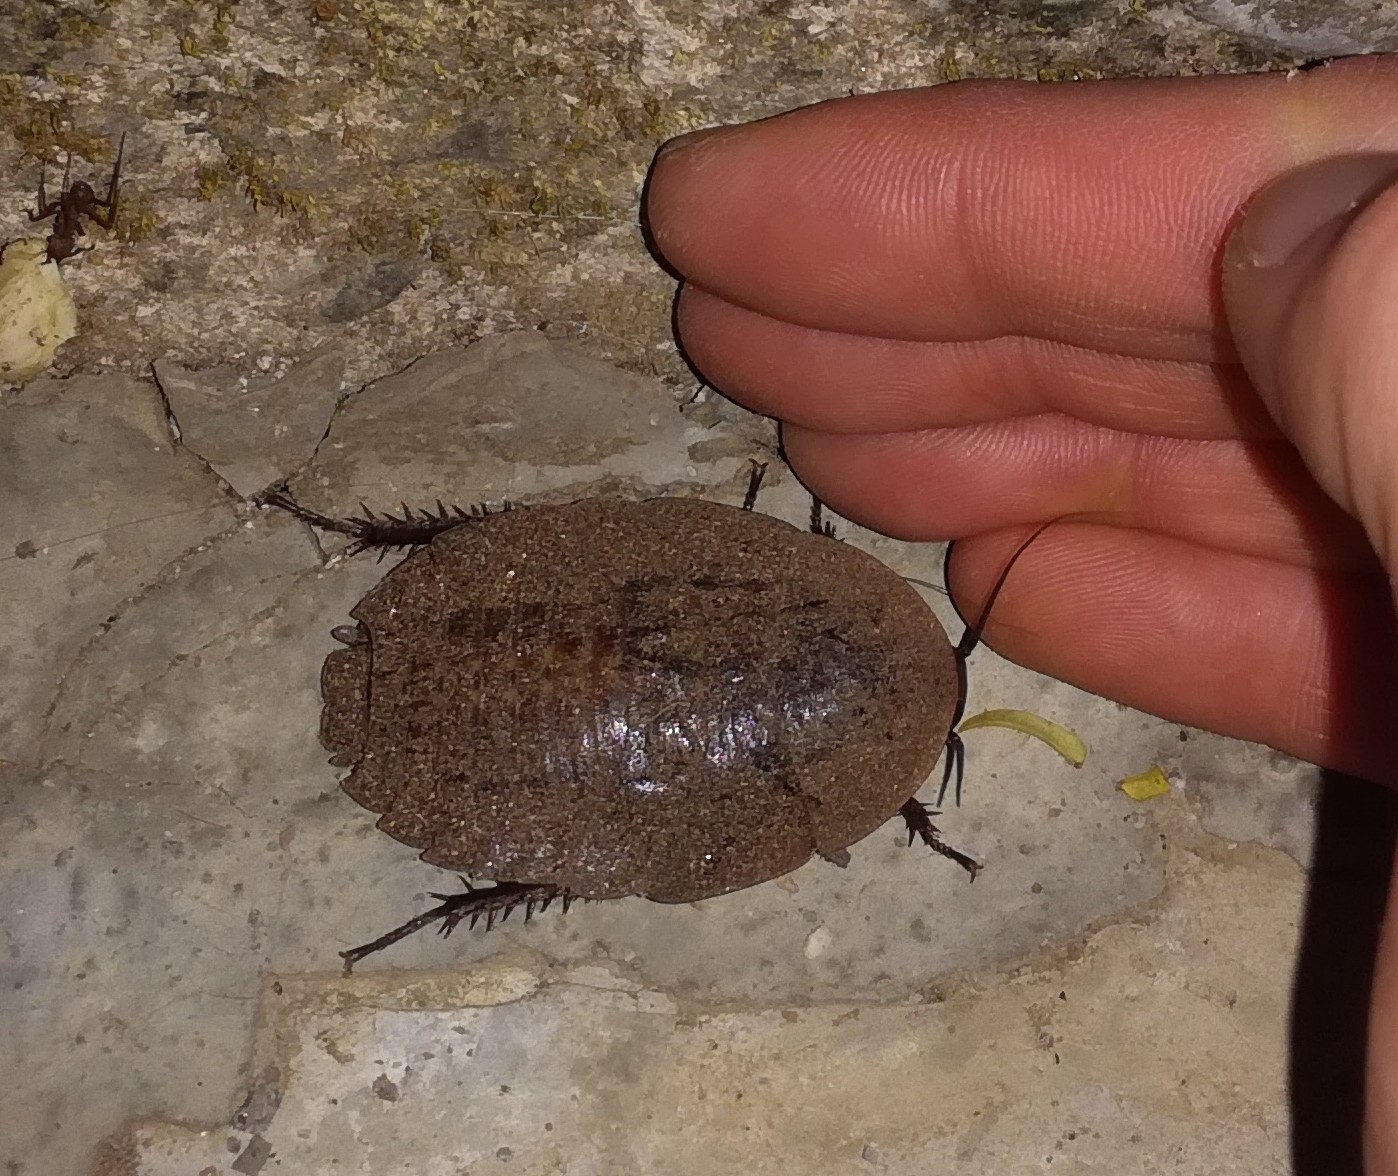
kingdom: Animalia
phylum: Arthropoda
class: Insecta
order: Blattodea
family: Blaberidae
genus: Blaberus
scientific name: Blaberus giganteus
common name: Giant cave cockroach
